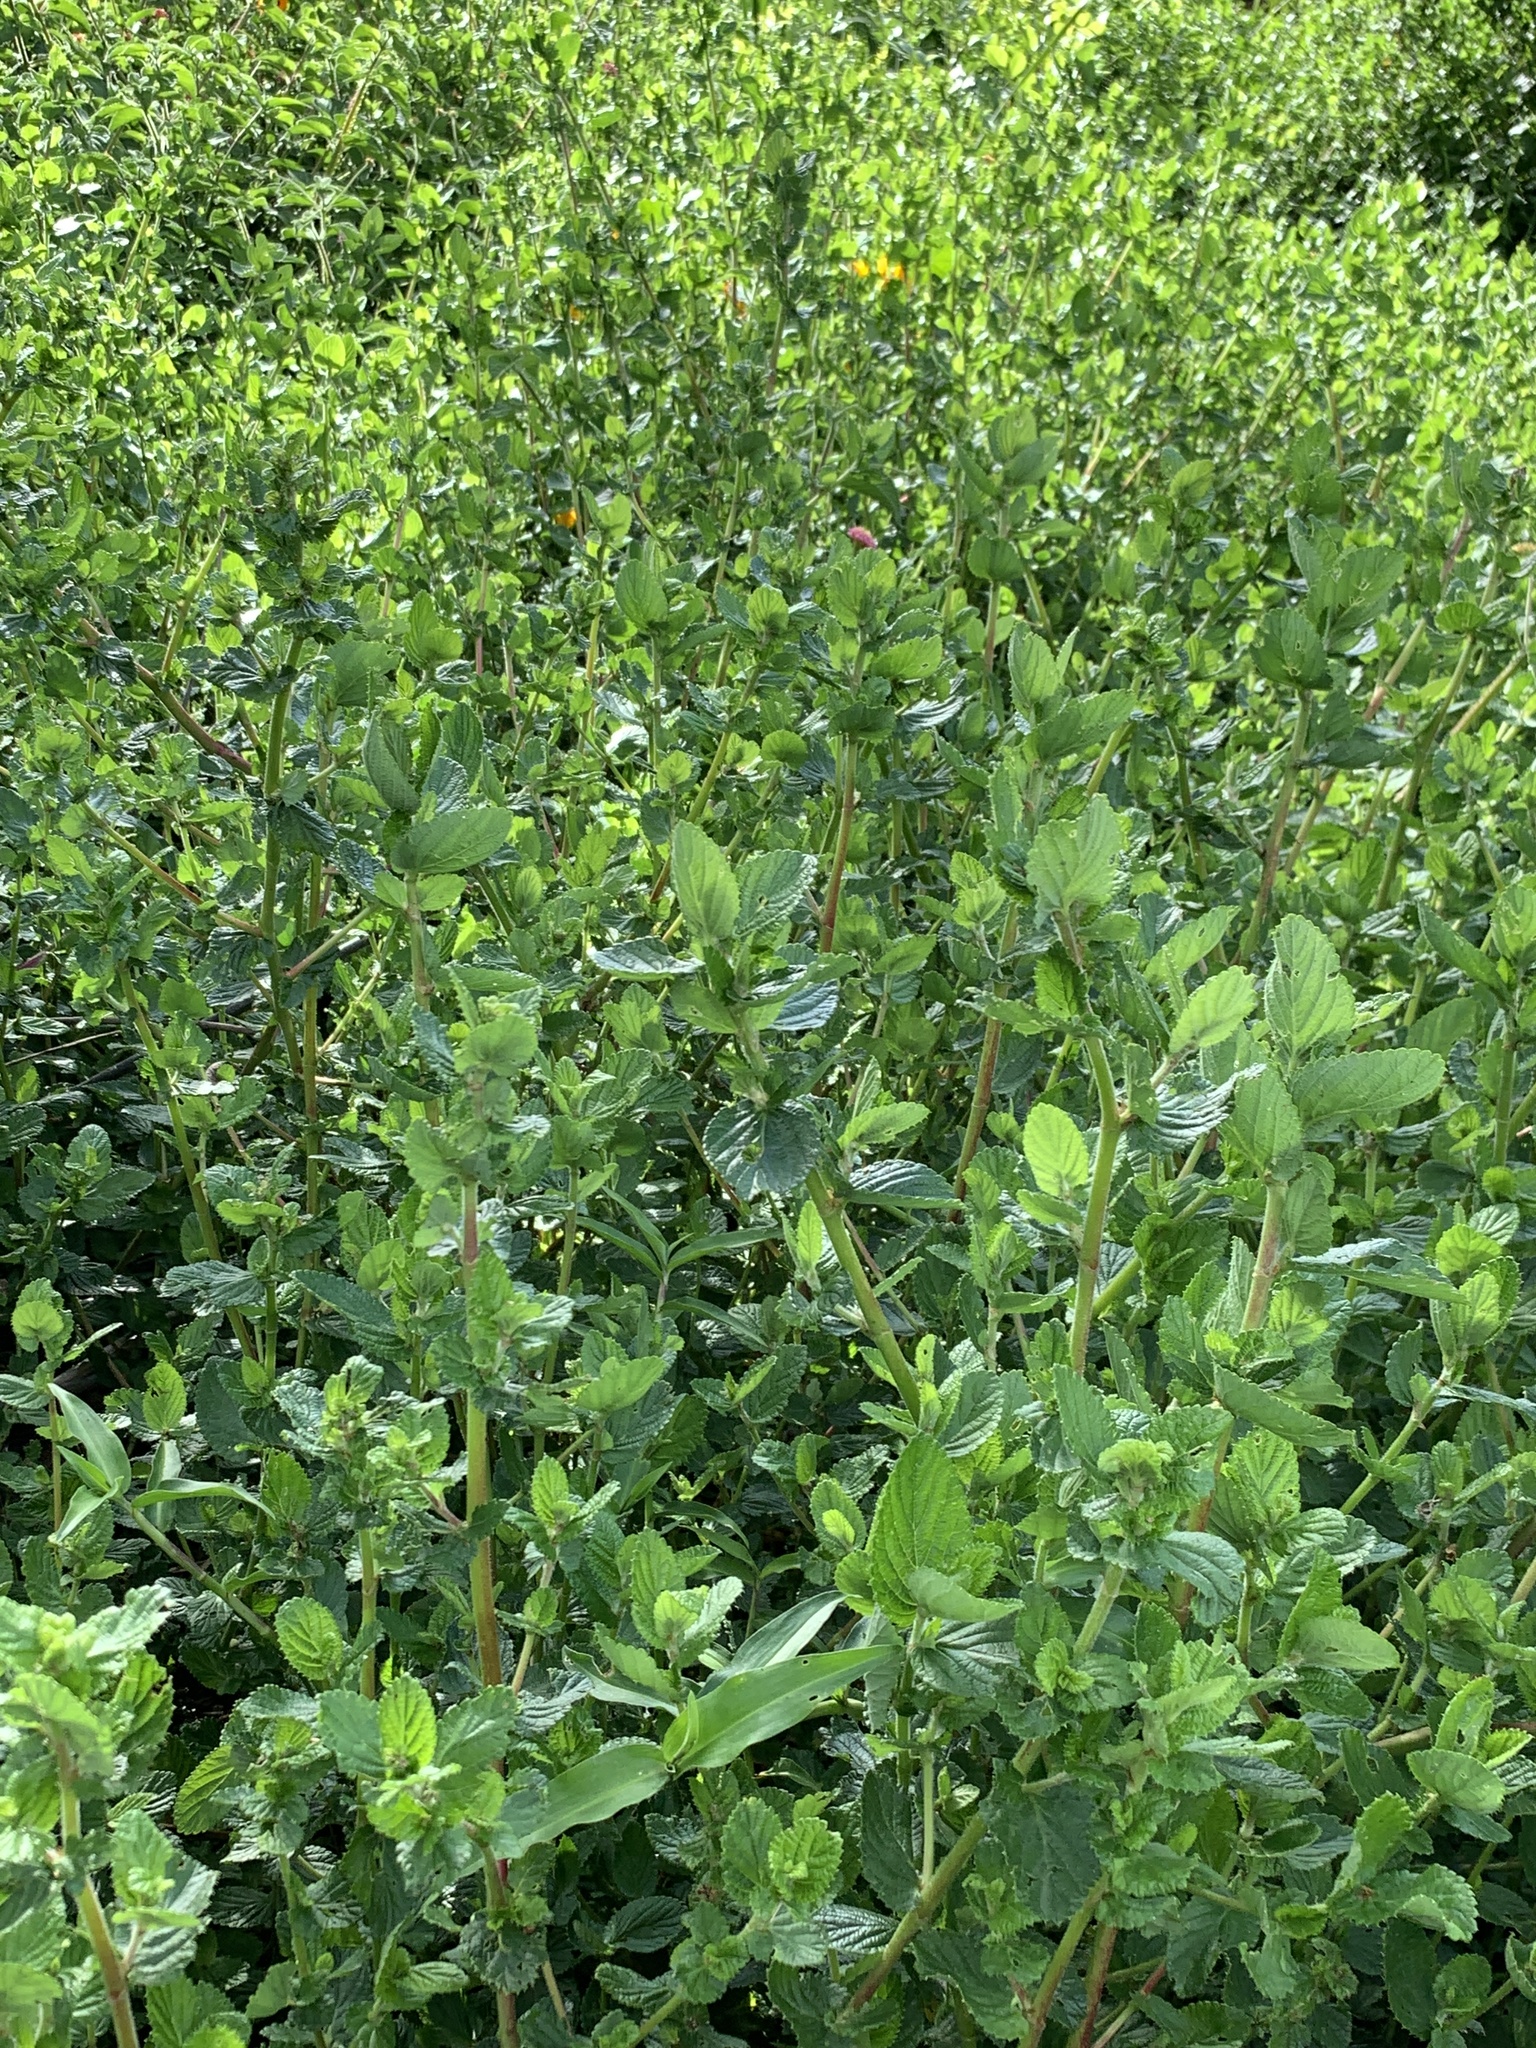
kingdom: Plantae
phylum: Tracheophyta
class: Magnoliopsida
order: Rosales
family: Rosaceae
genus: Cliffortia
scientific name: Cliffortia odorata
